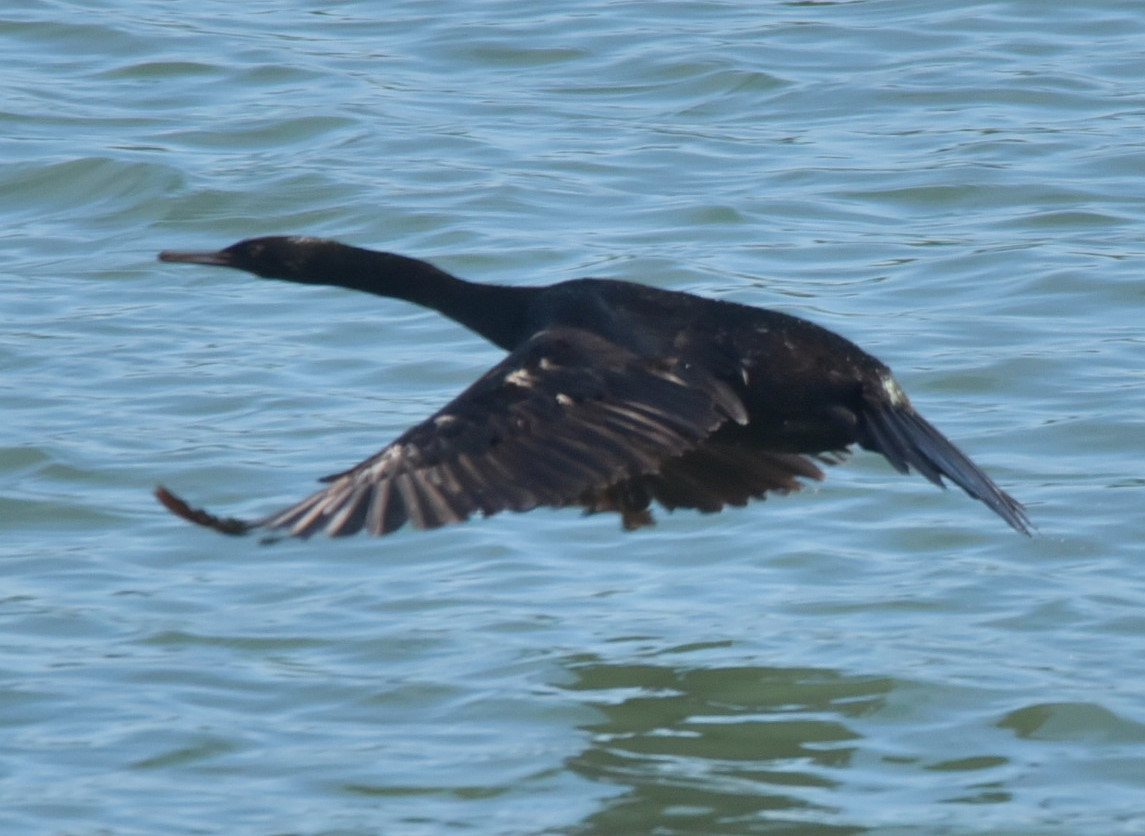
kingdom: Animalia
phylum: Chordata
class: Aves
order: Suliformes
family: Phalacrocoracidae
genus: Phalacrocorax
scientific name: Phalacrocorax pelagicus
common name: Pelagic cormorant
